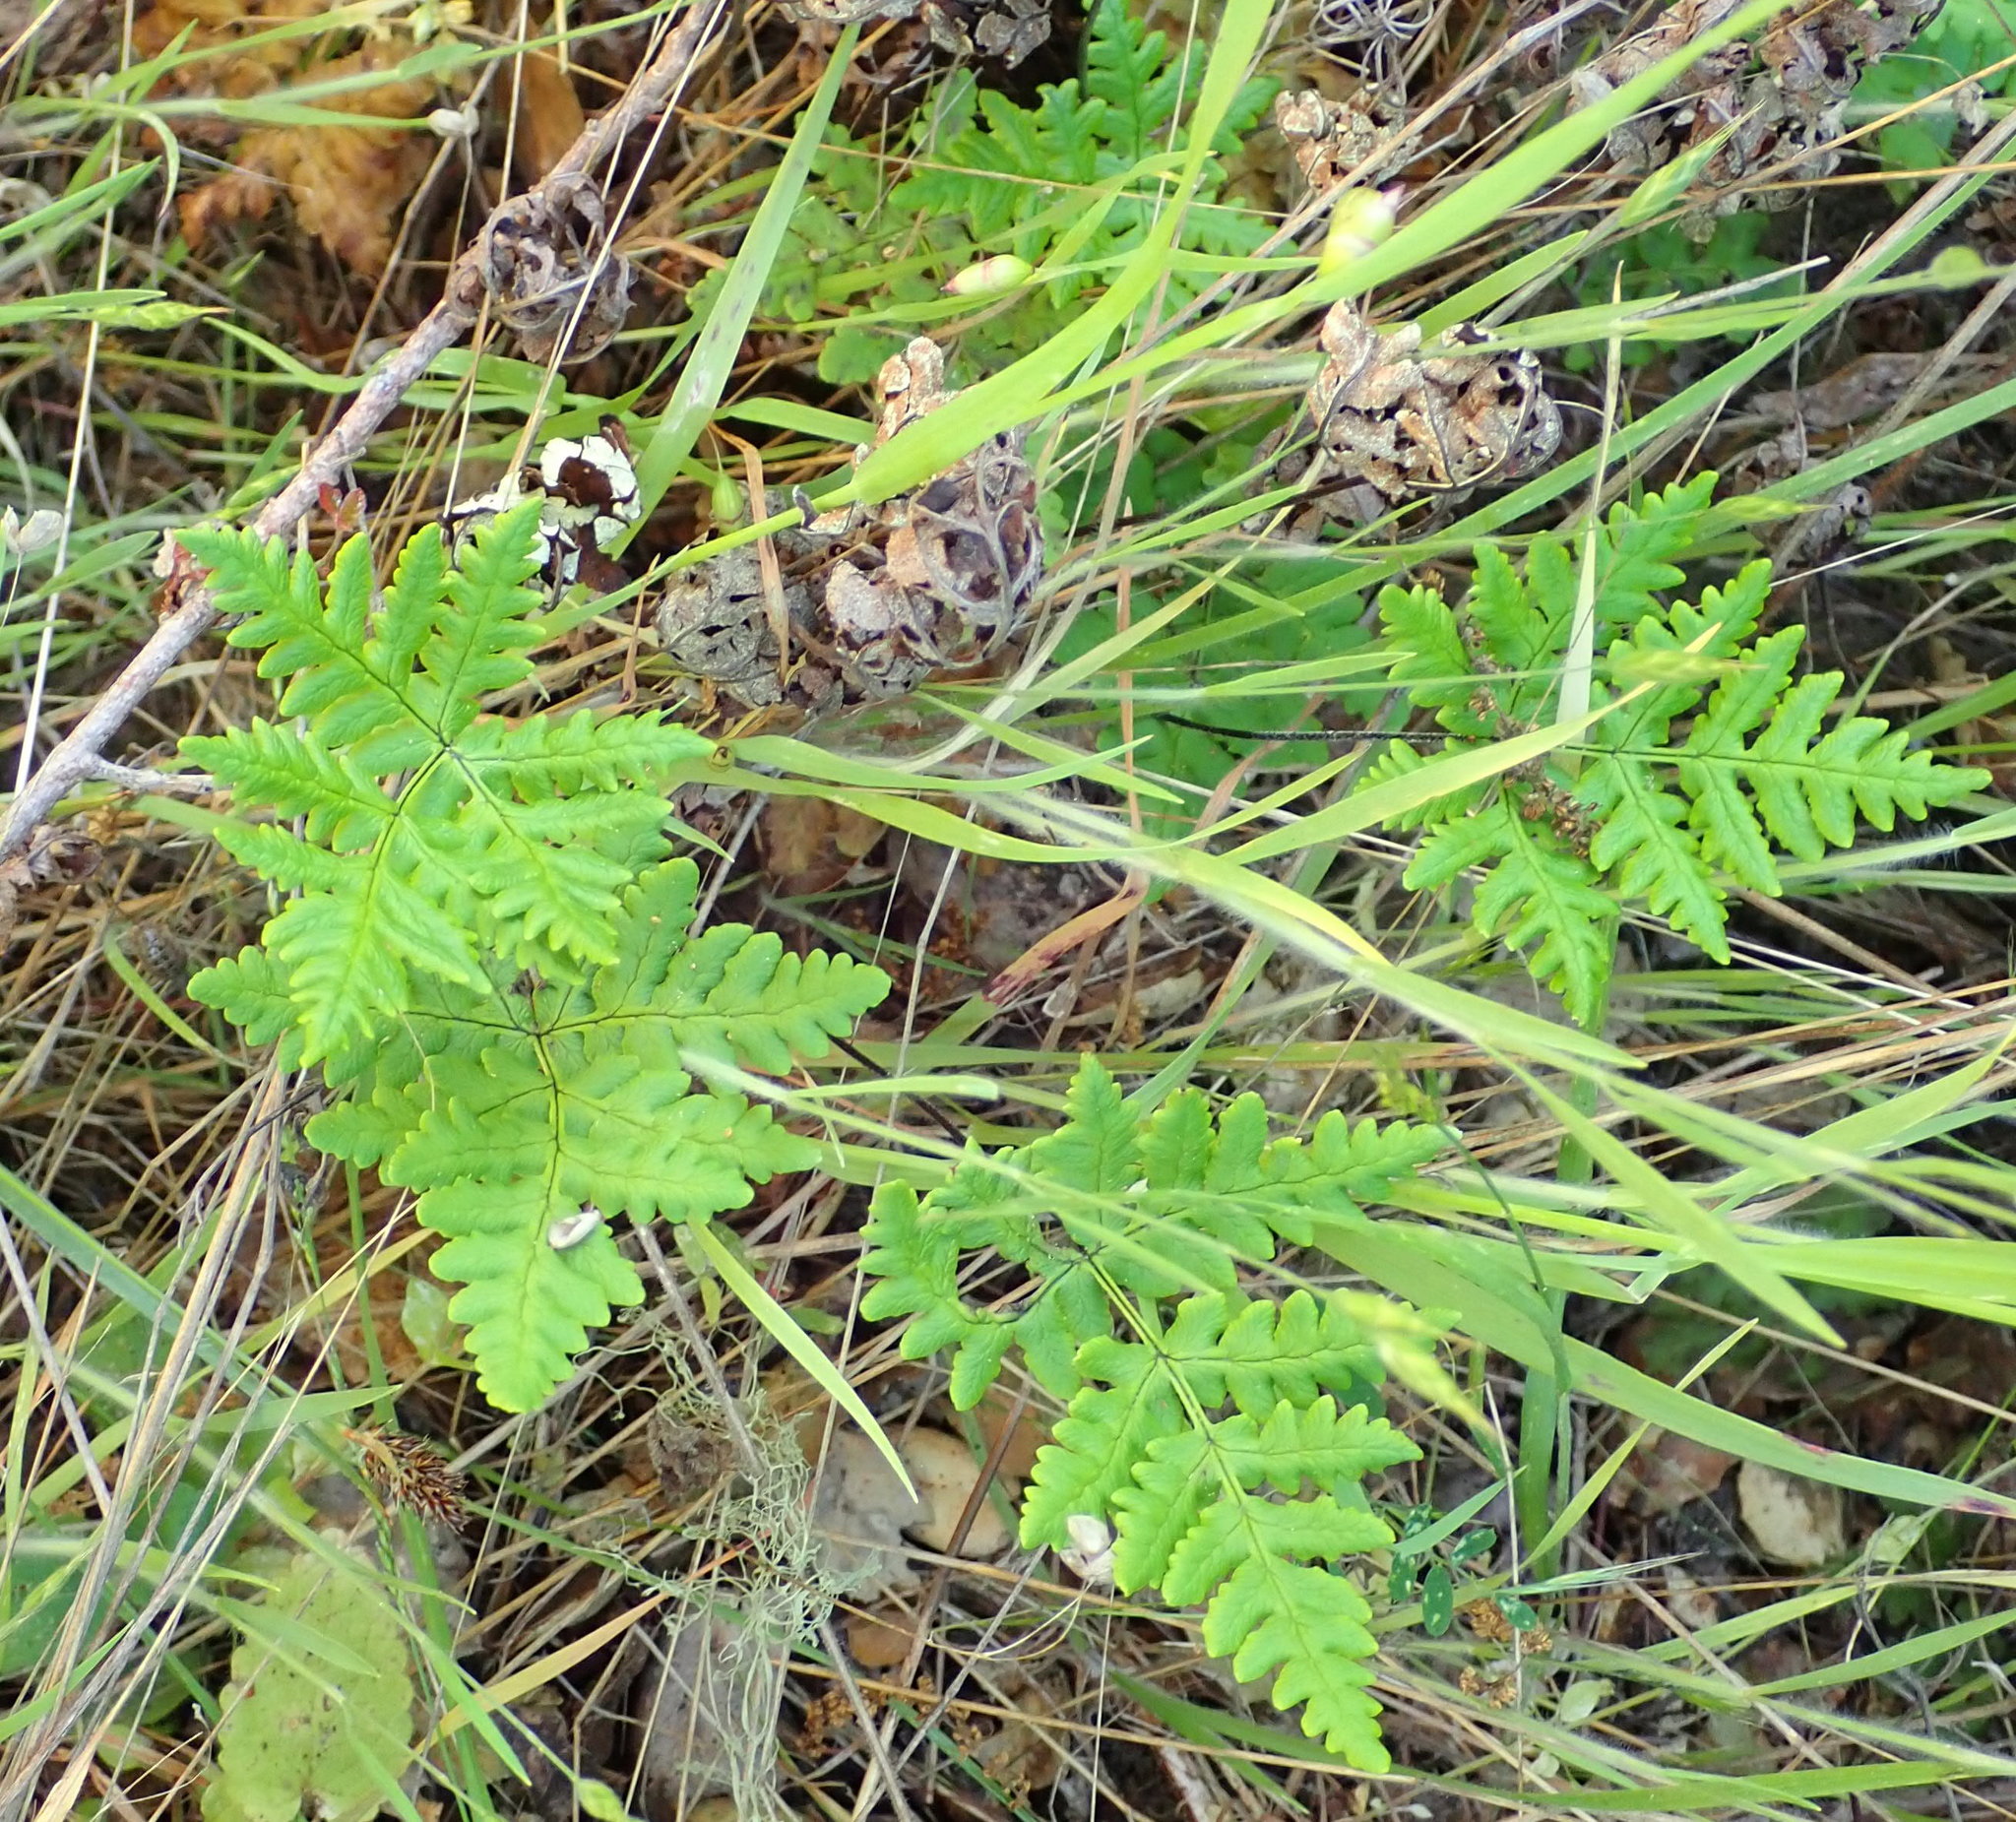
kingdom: Plantae
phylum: Tracheophyta
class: Polypodiopsida
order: Polypodiales
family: Pteridaceae
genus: Pentagramma
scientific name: Pentagramma triangularis
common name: Gold fern
